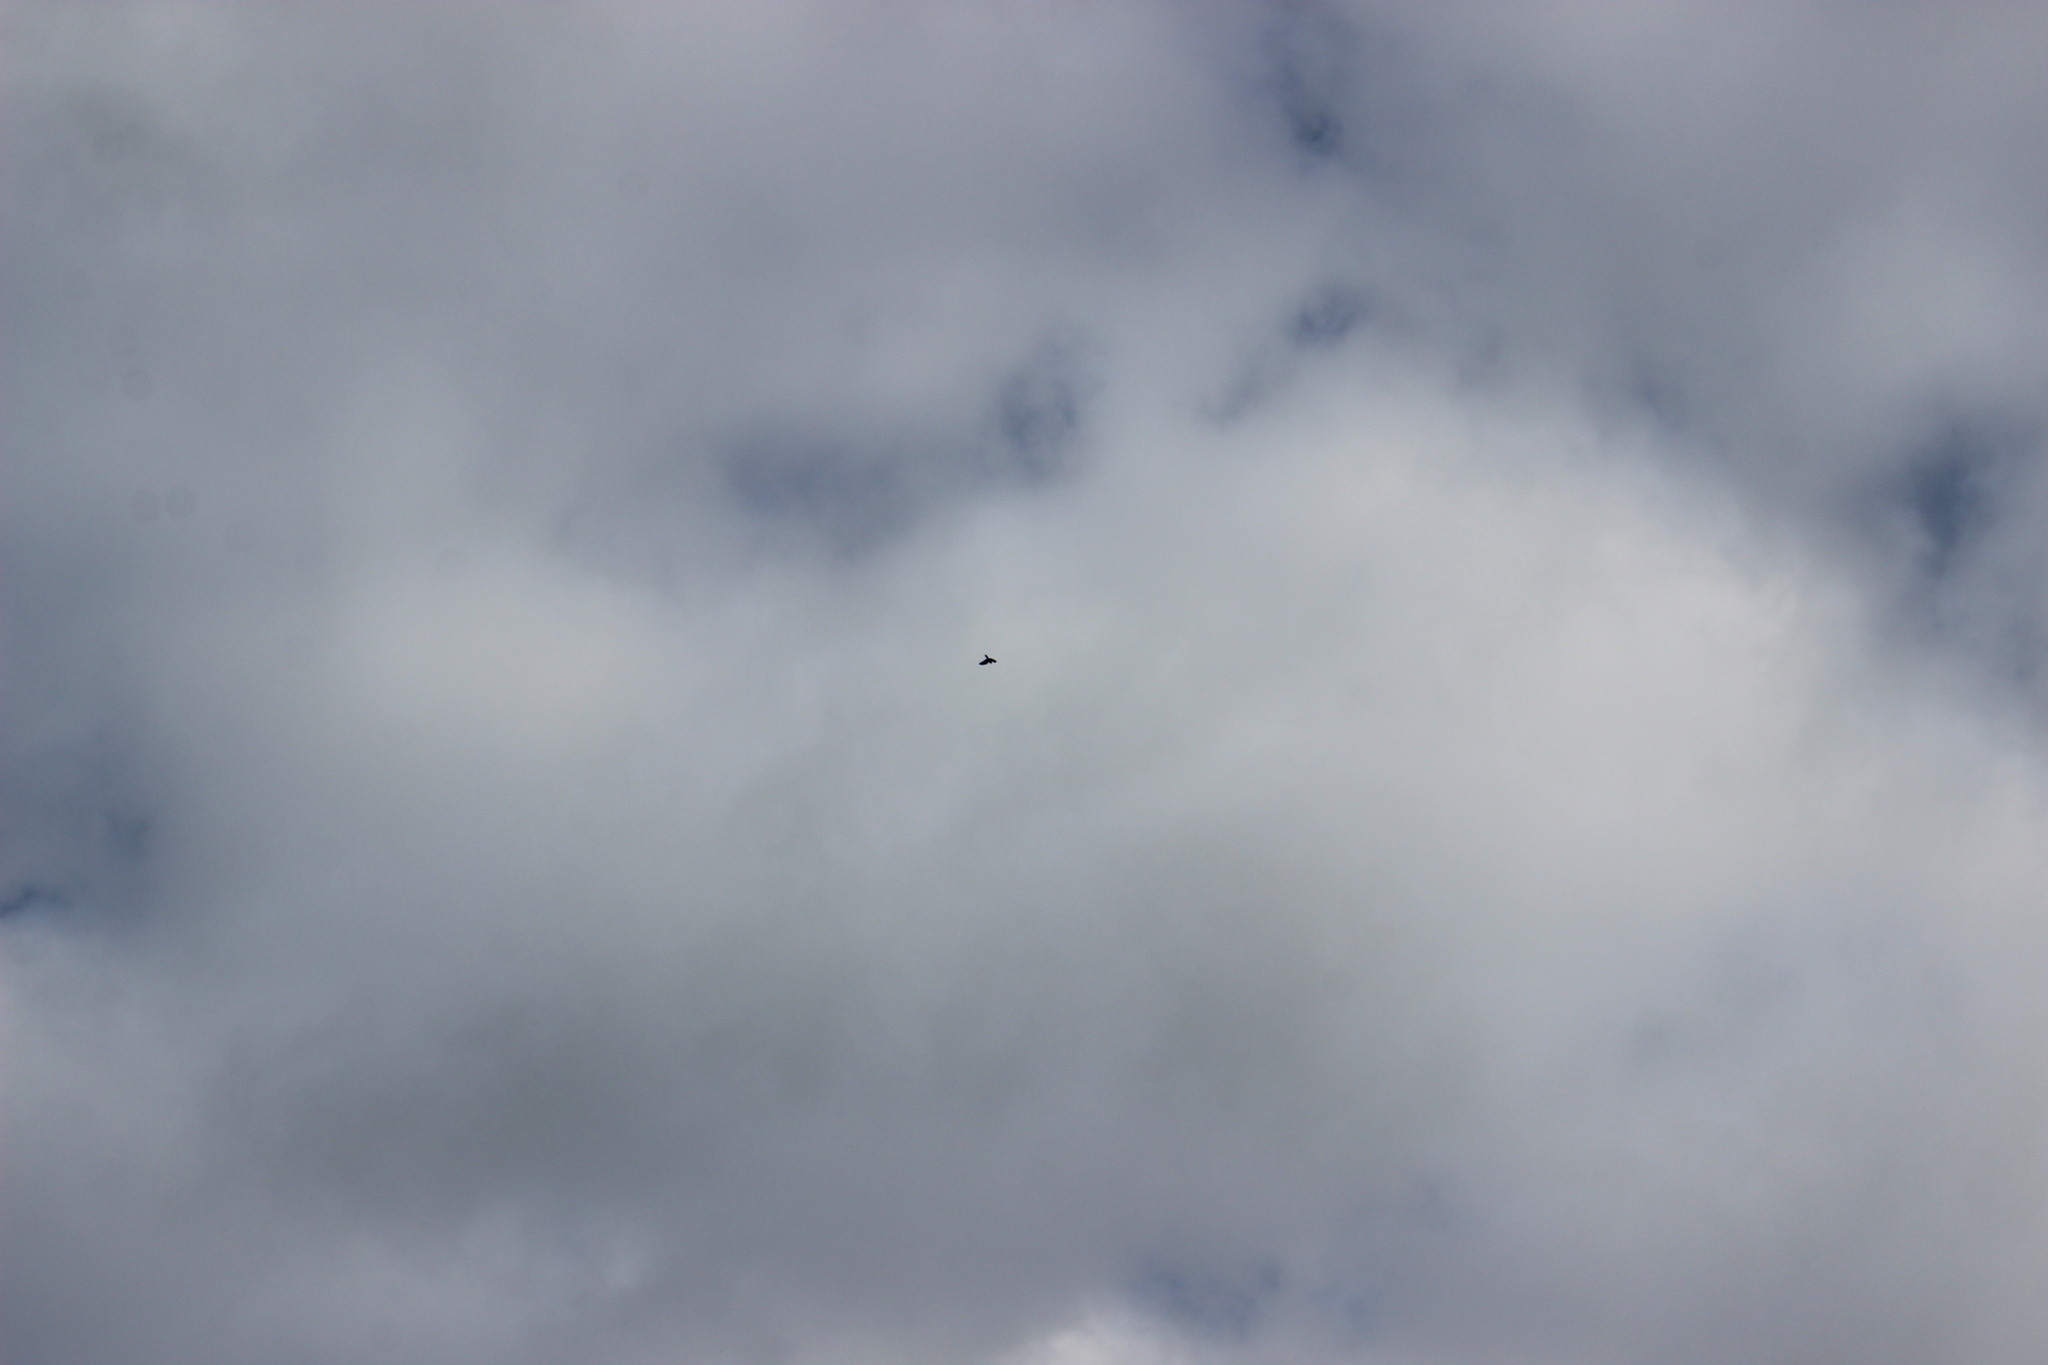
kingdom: Animalia
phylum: Chordata
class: Aves
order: Falconiformes
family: Falconidae
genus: Falco
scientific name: Falco novaeseelandiae
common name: New zealand falcon
